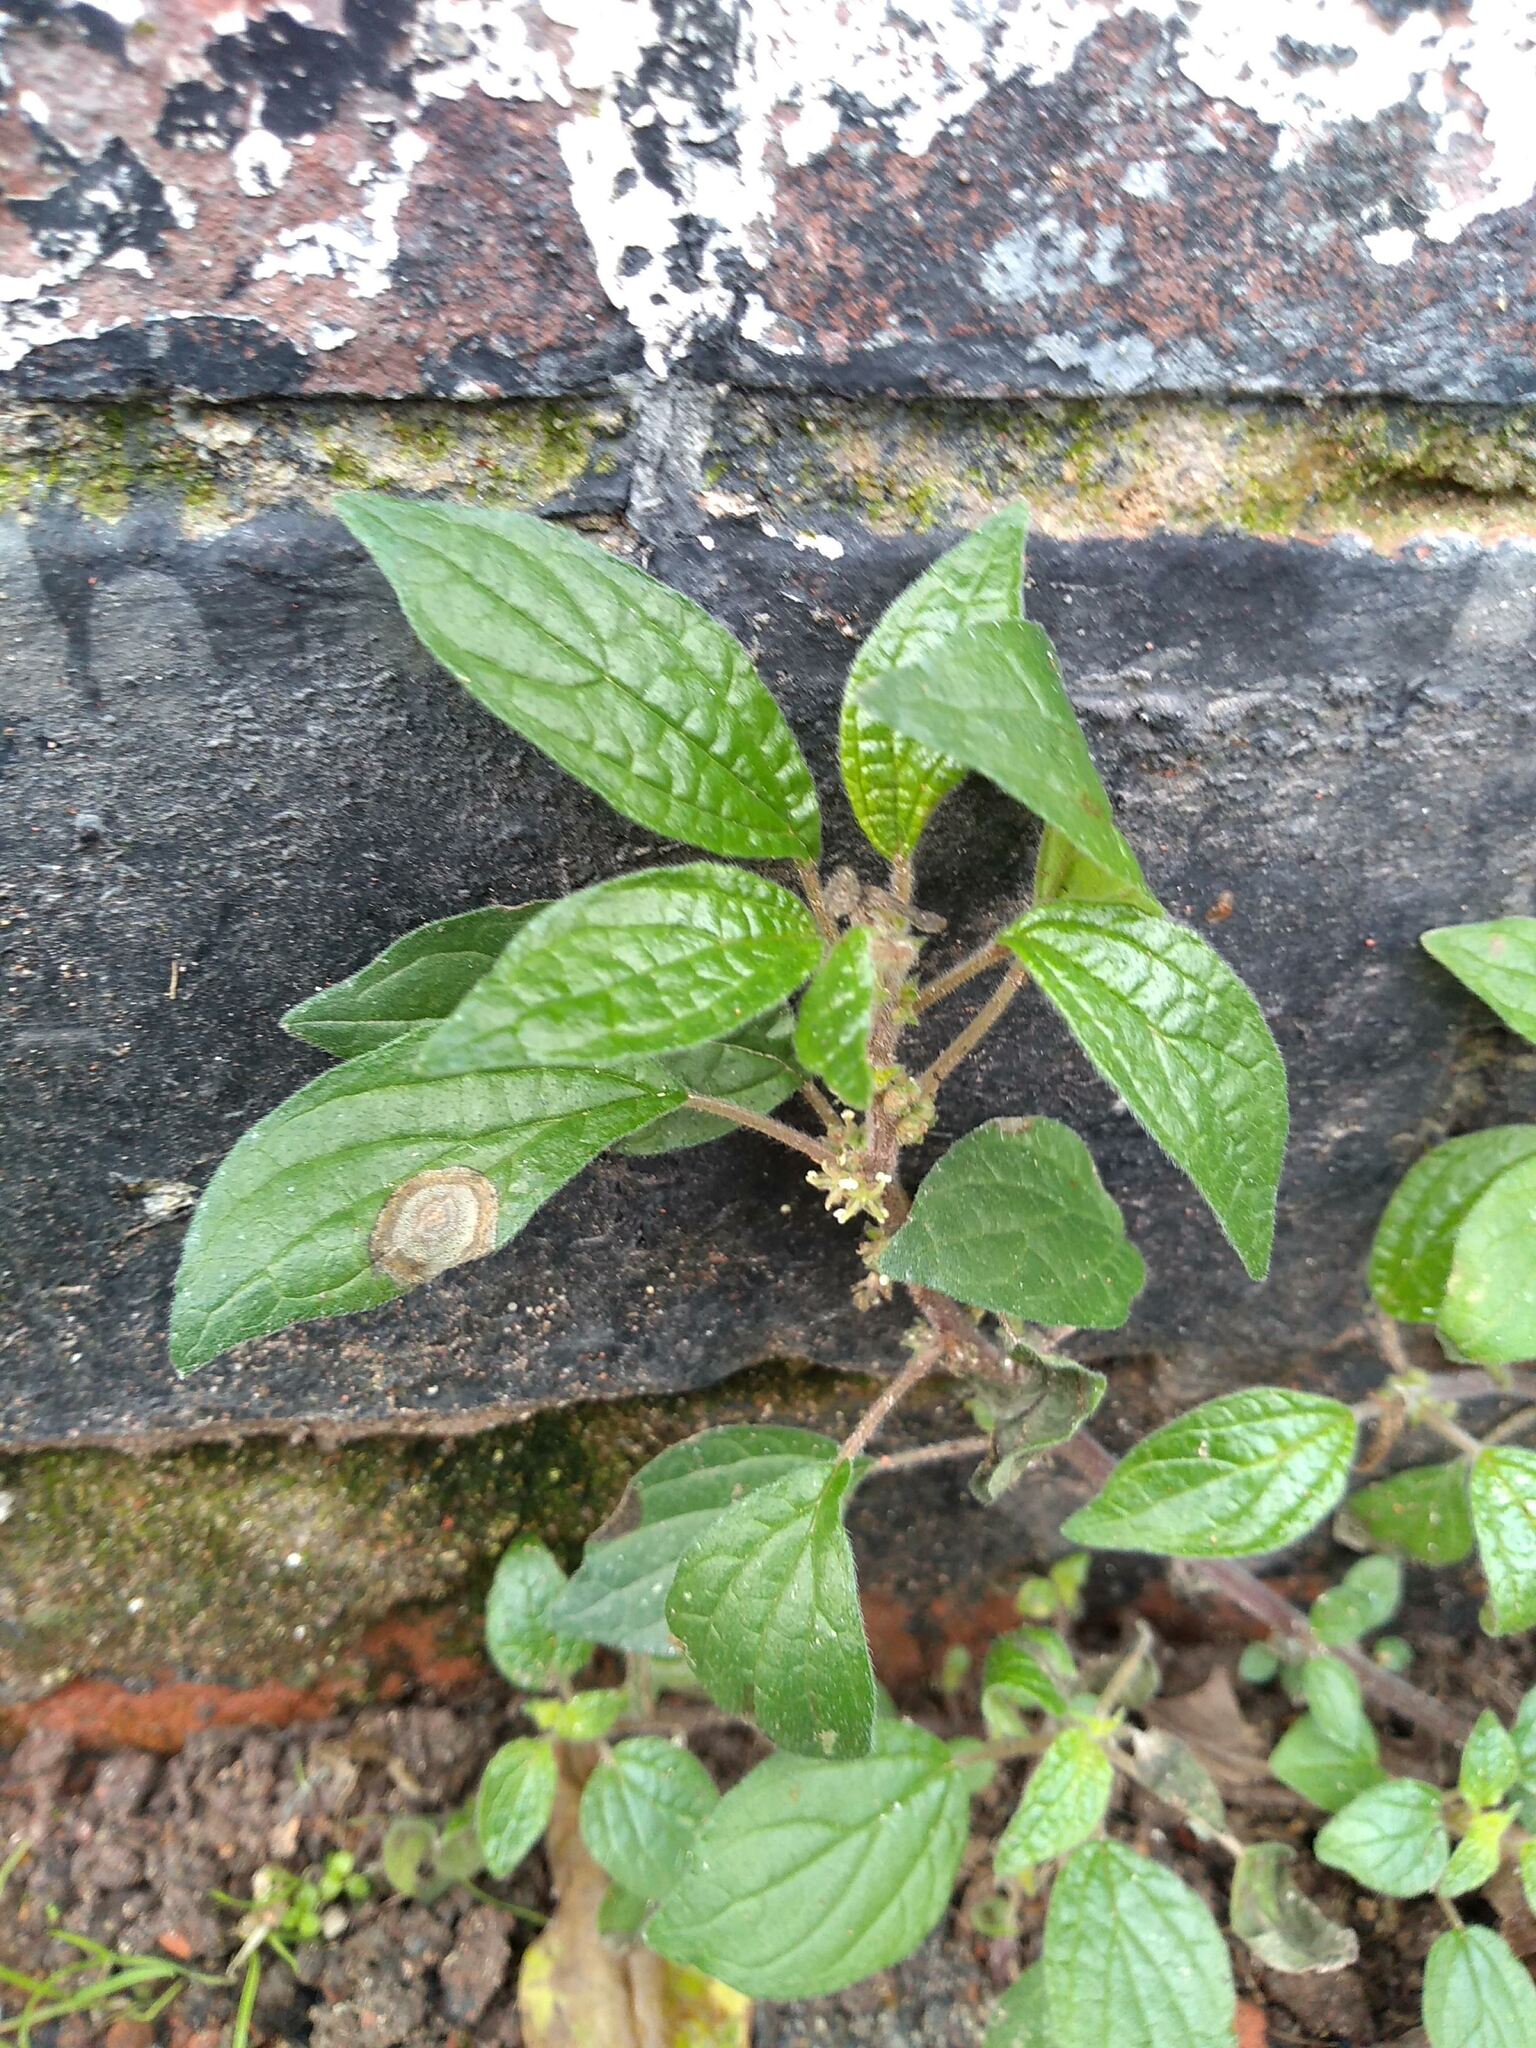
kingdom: Plantae
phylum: Tracheophyta
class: Magnoliopsida
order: Rosales
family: Urticaceae
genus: Parietaria
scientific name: Parietaria judaica
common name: Pellitory-of-the-wall
